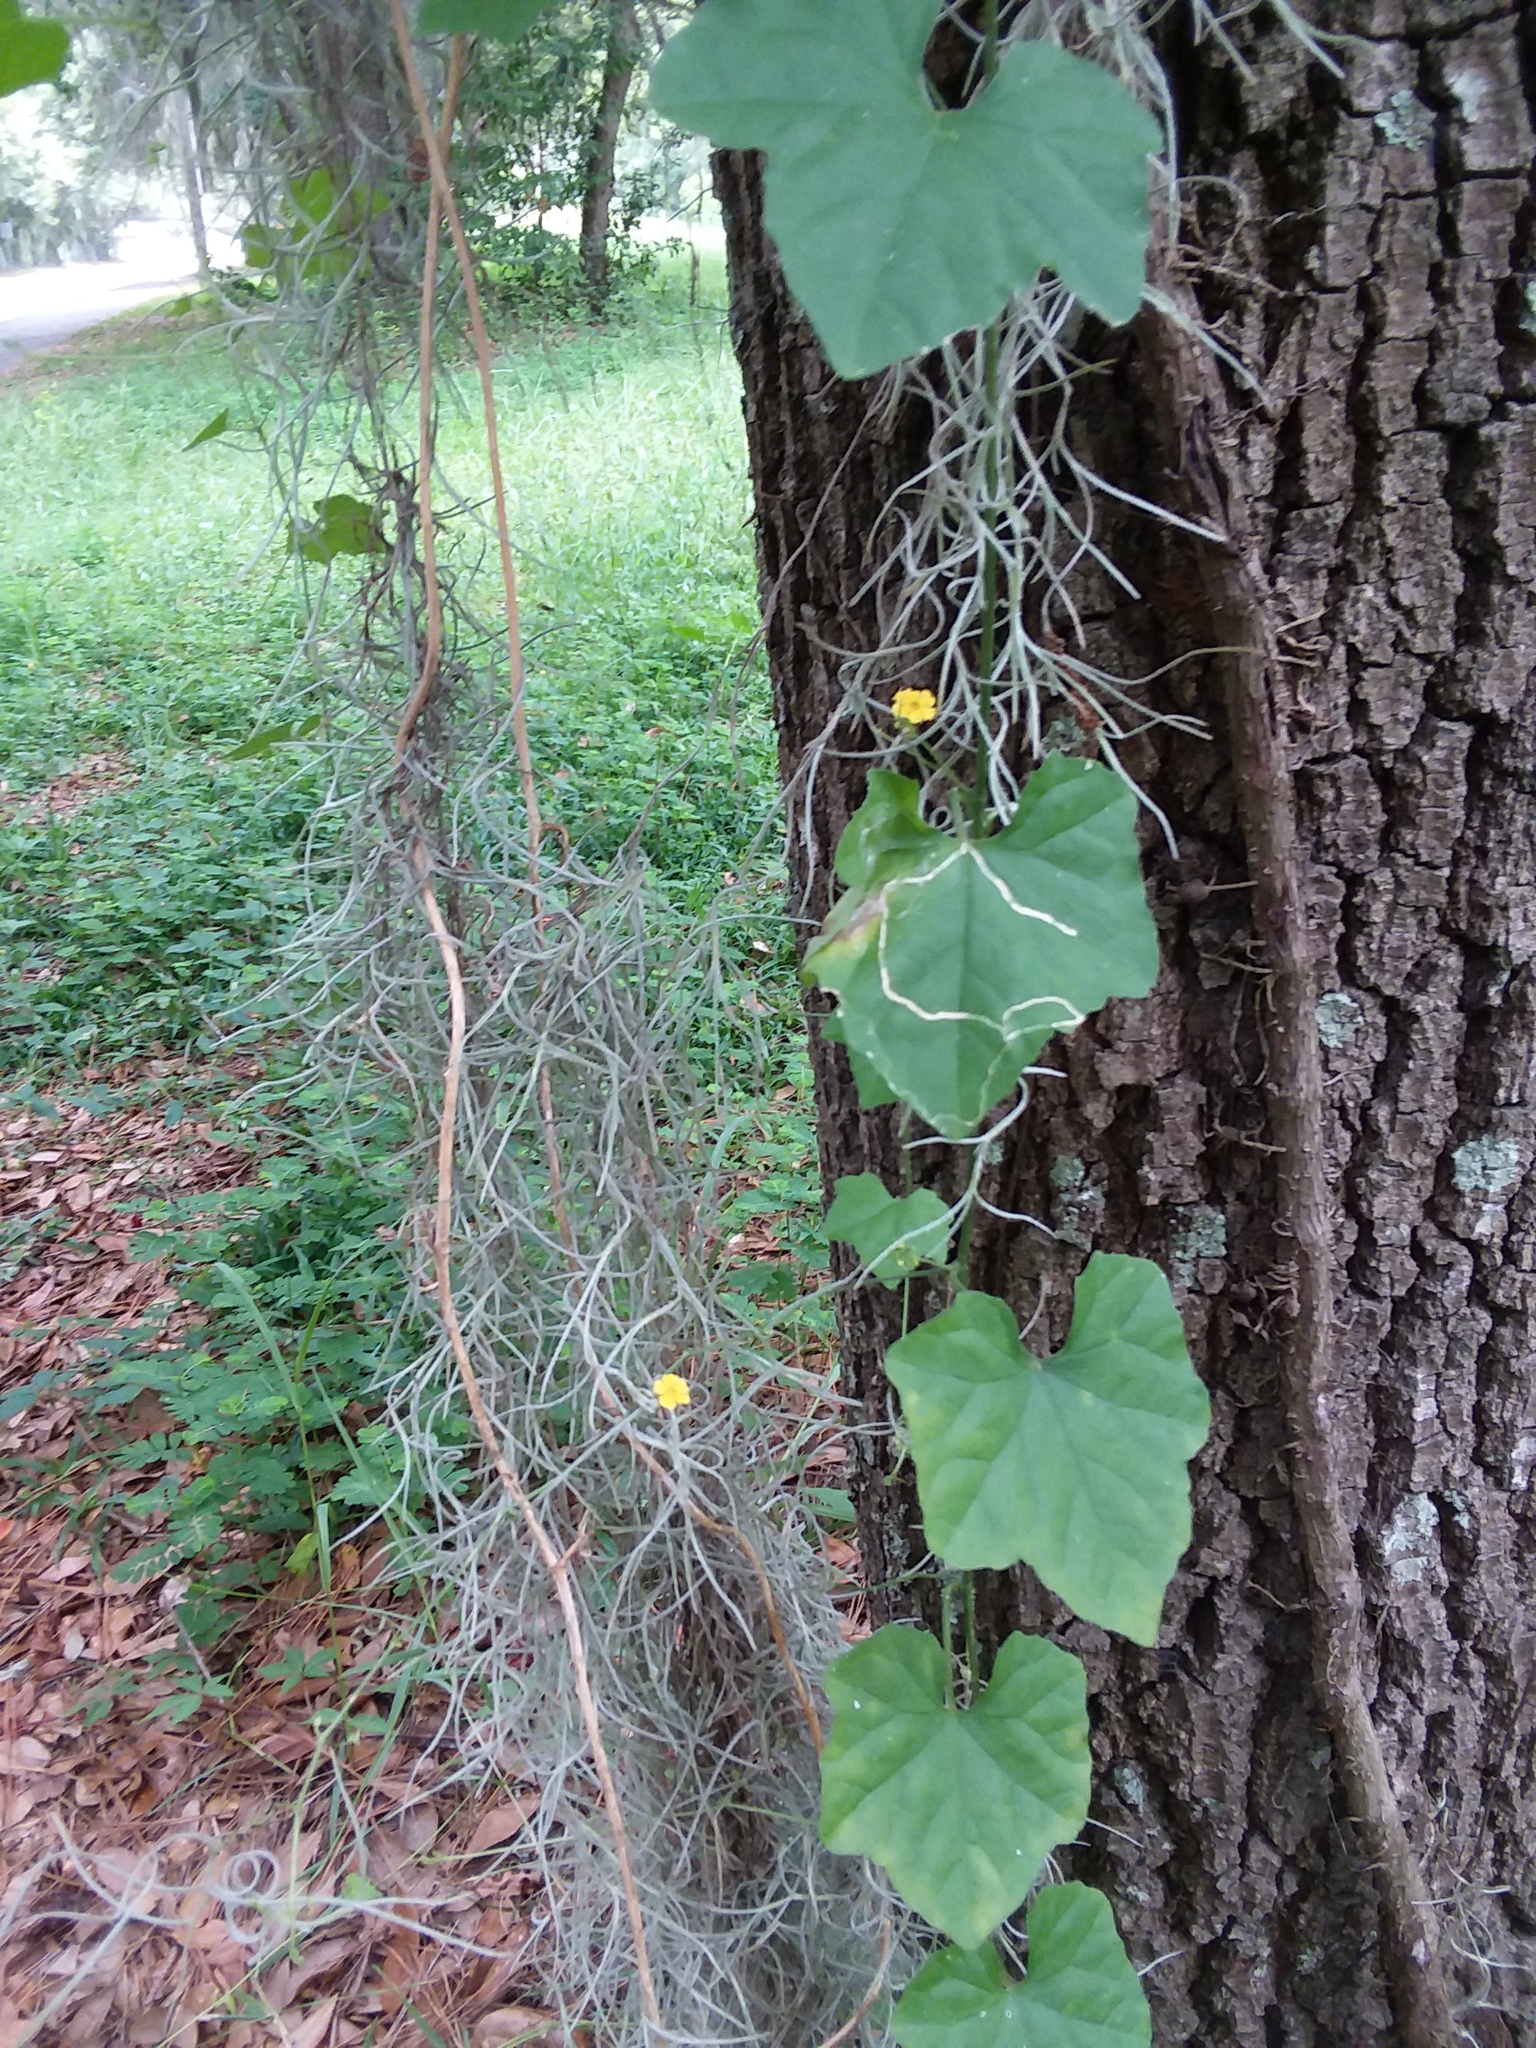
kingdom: Plantae
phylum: Tracheophyta
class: Liliopsida
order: Poales
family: Bromeliaceae
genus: Tillandsia
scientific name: Tillandsia usneoides
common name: Spanish moss
